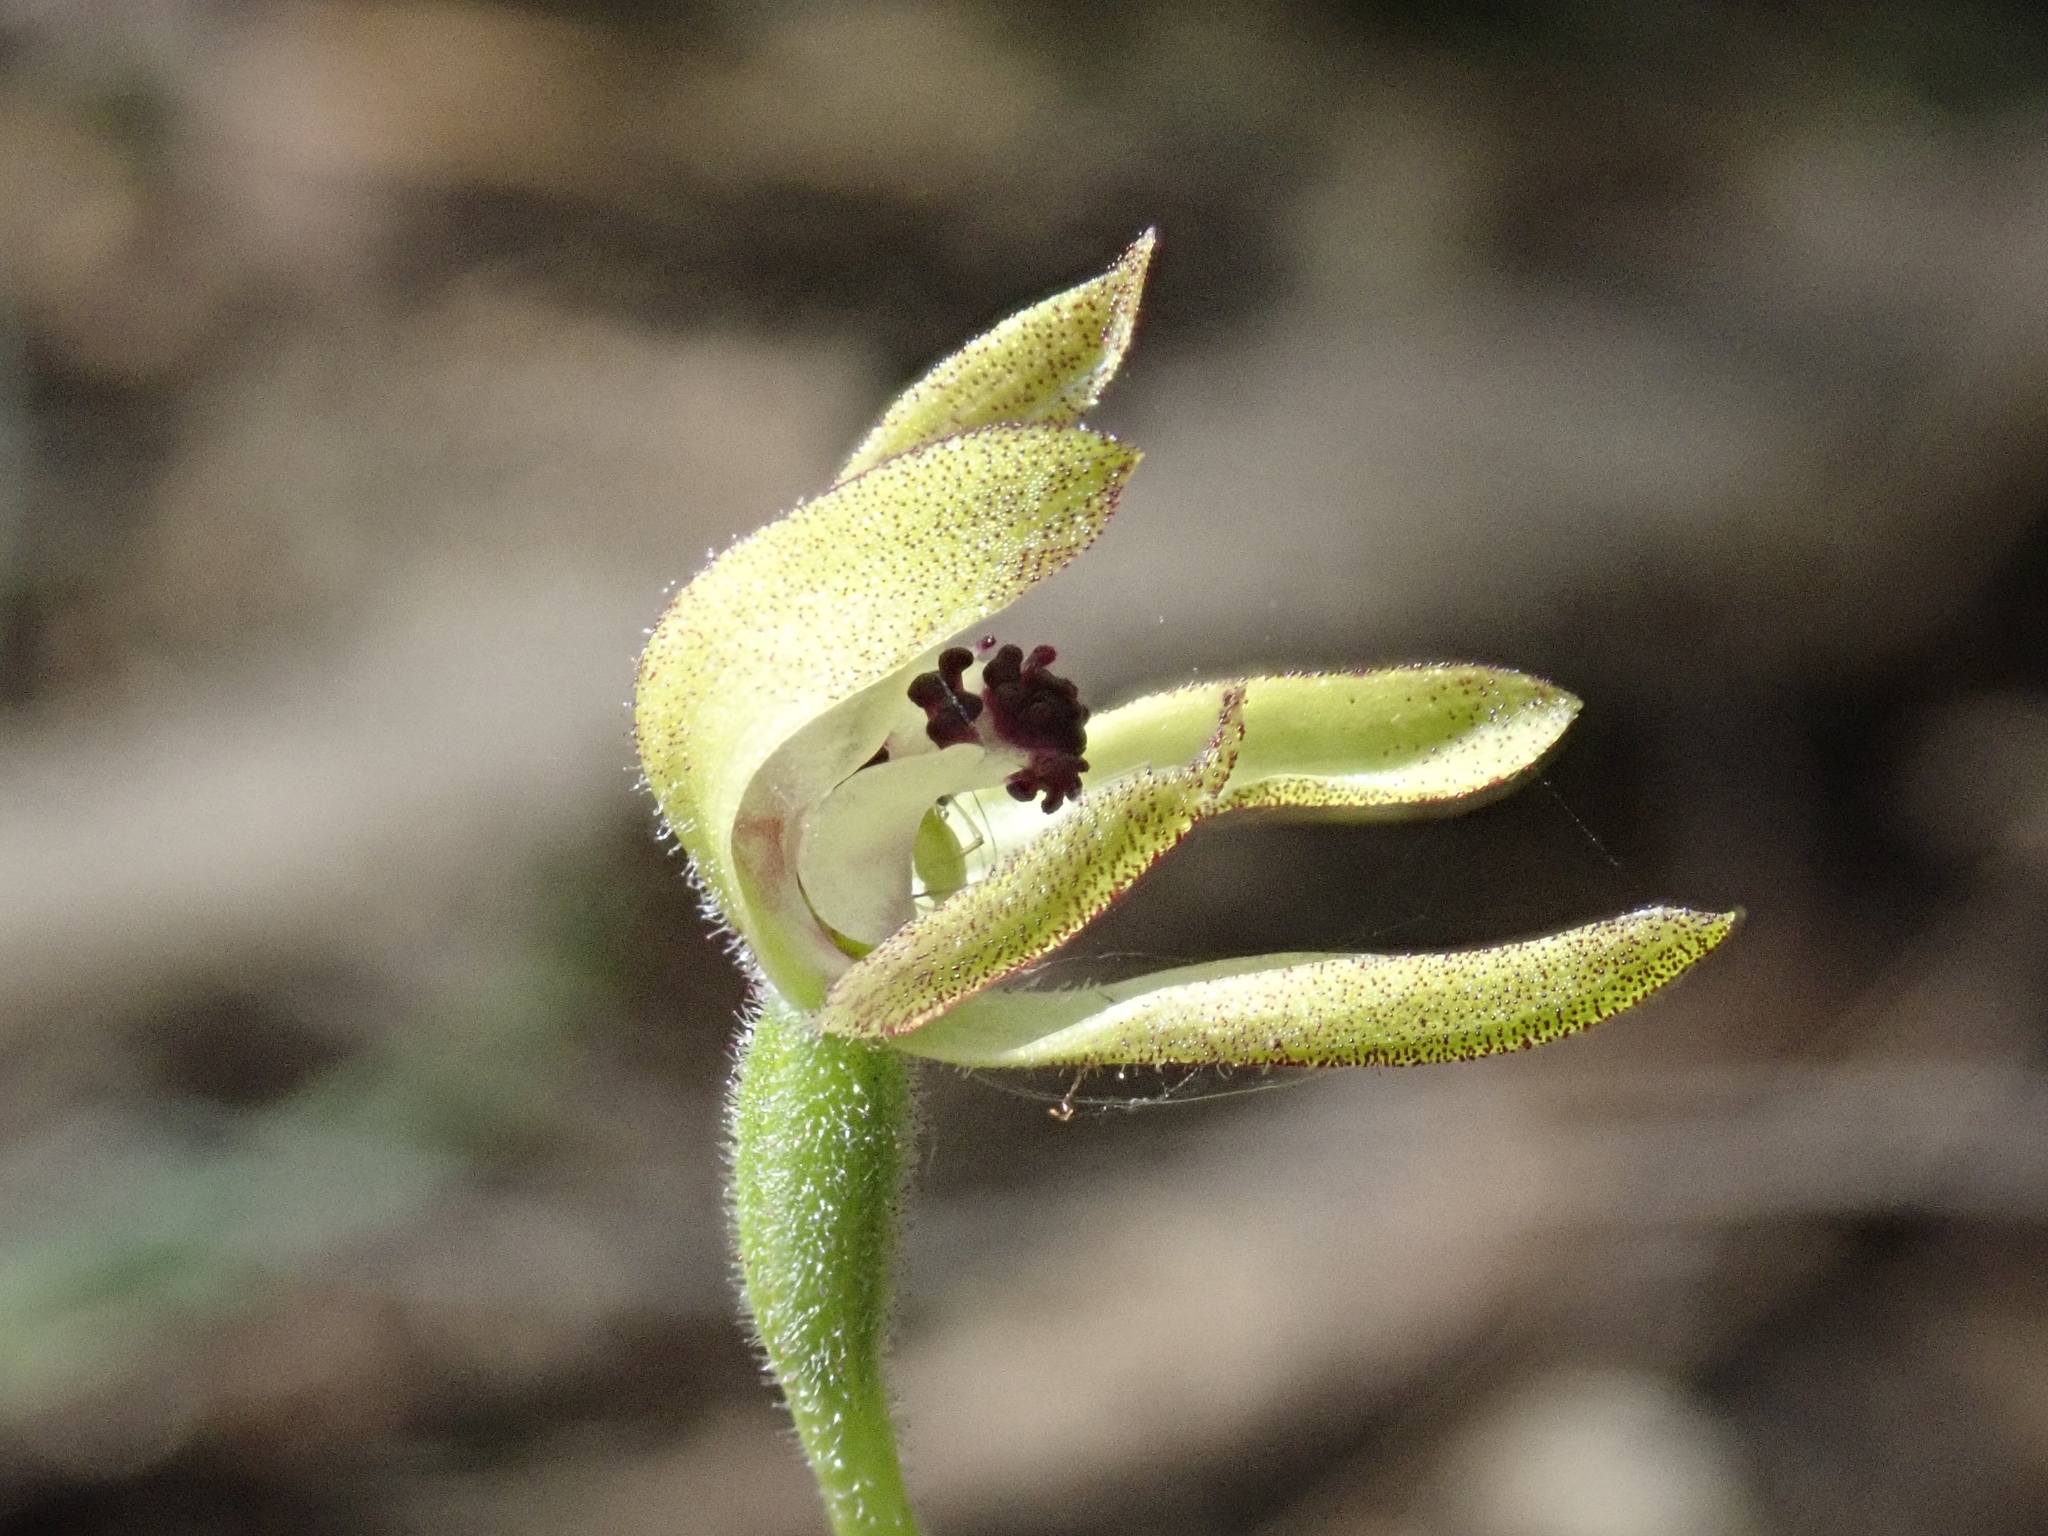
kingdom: Plantae
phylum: Tracheophyta
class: Liliopsida
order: Asparagales
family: Orchidaceae
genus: Caladenia
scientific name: Caladenia transitoria
